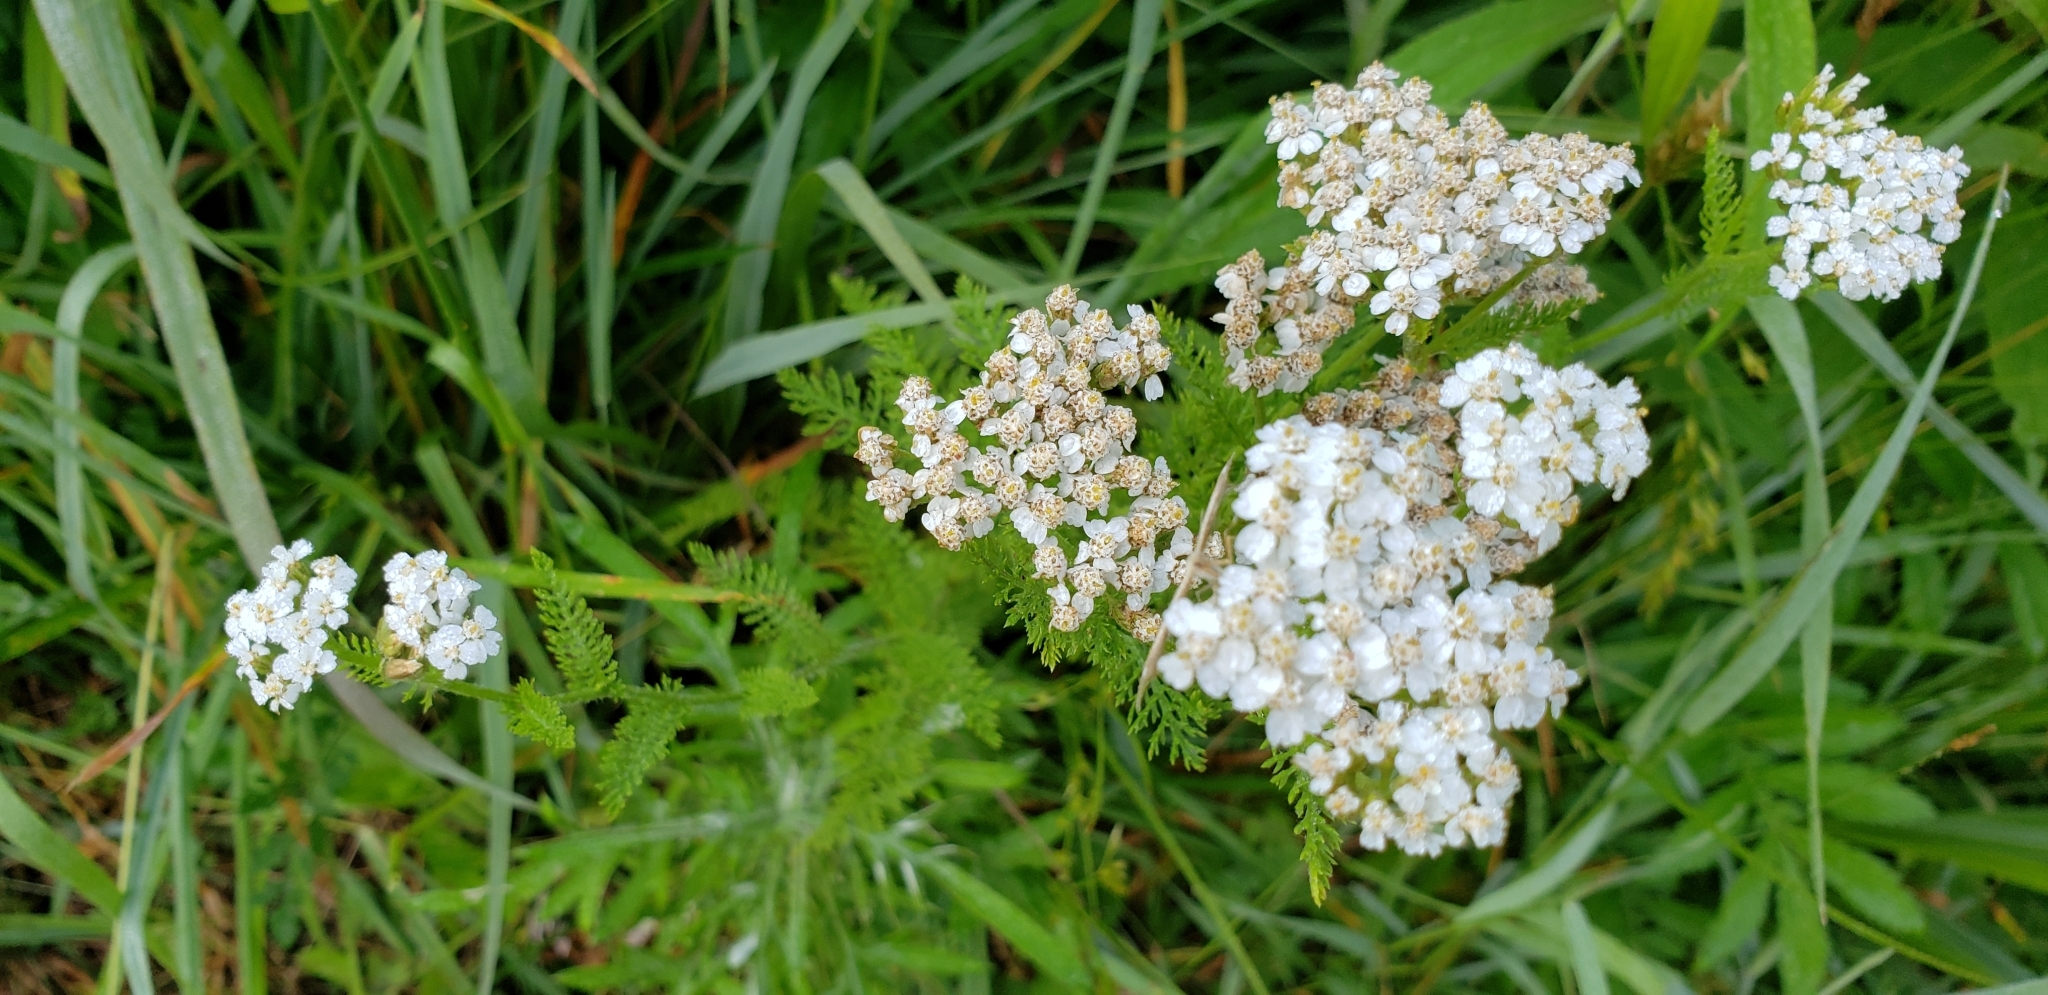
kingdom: Plantae
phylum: Tracheophyta
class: Magnoliopsida
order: Asterales
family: Asteraceae
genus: Achillea
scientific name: Achillea millefolium
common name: Yarrow
